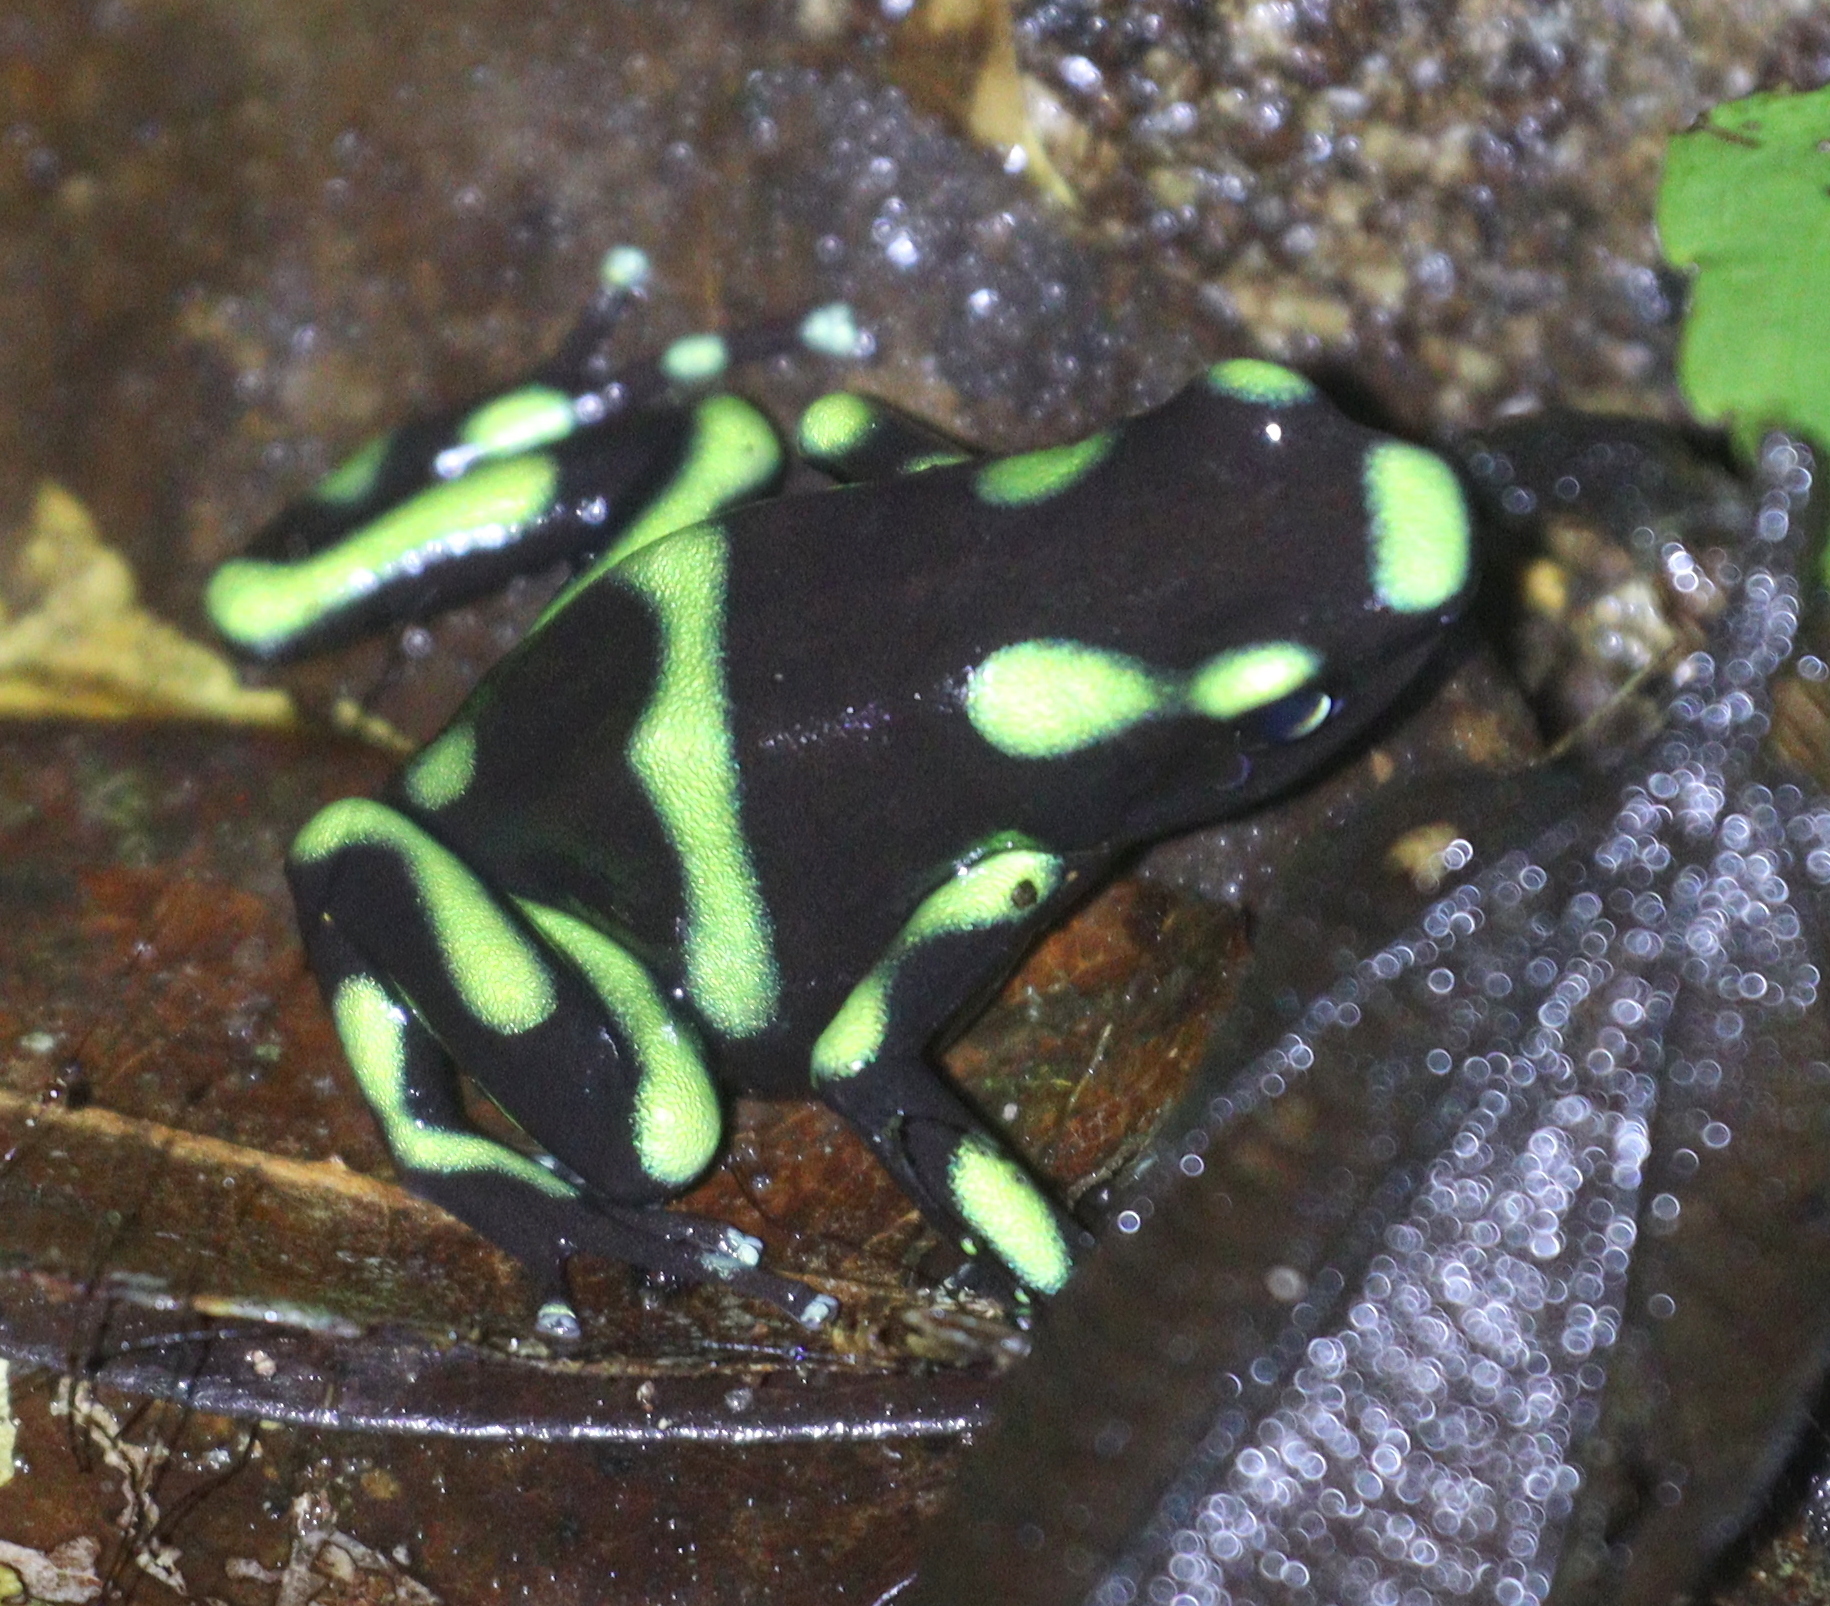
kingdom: Animalia
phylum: Chordata
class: Amphibia
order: Anura
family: Dendrobatidae
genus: Dendrobates
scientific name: Dendrobates auratus
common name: Green and black poison dart frog
